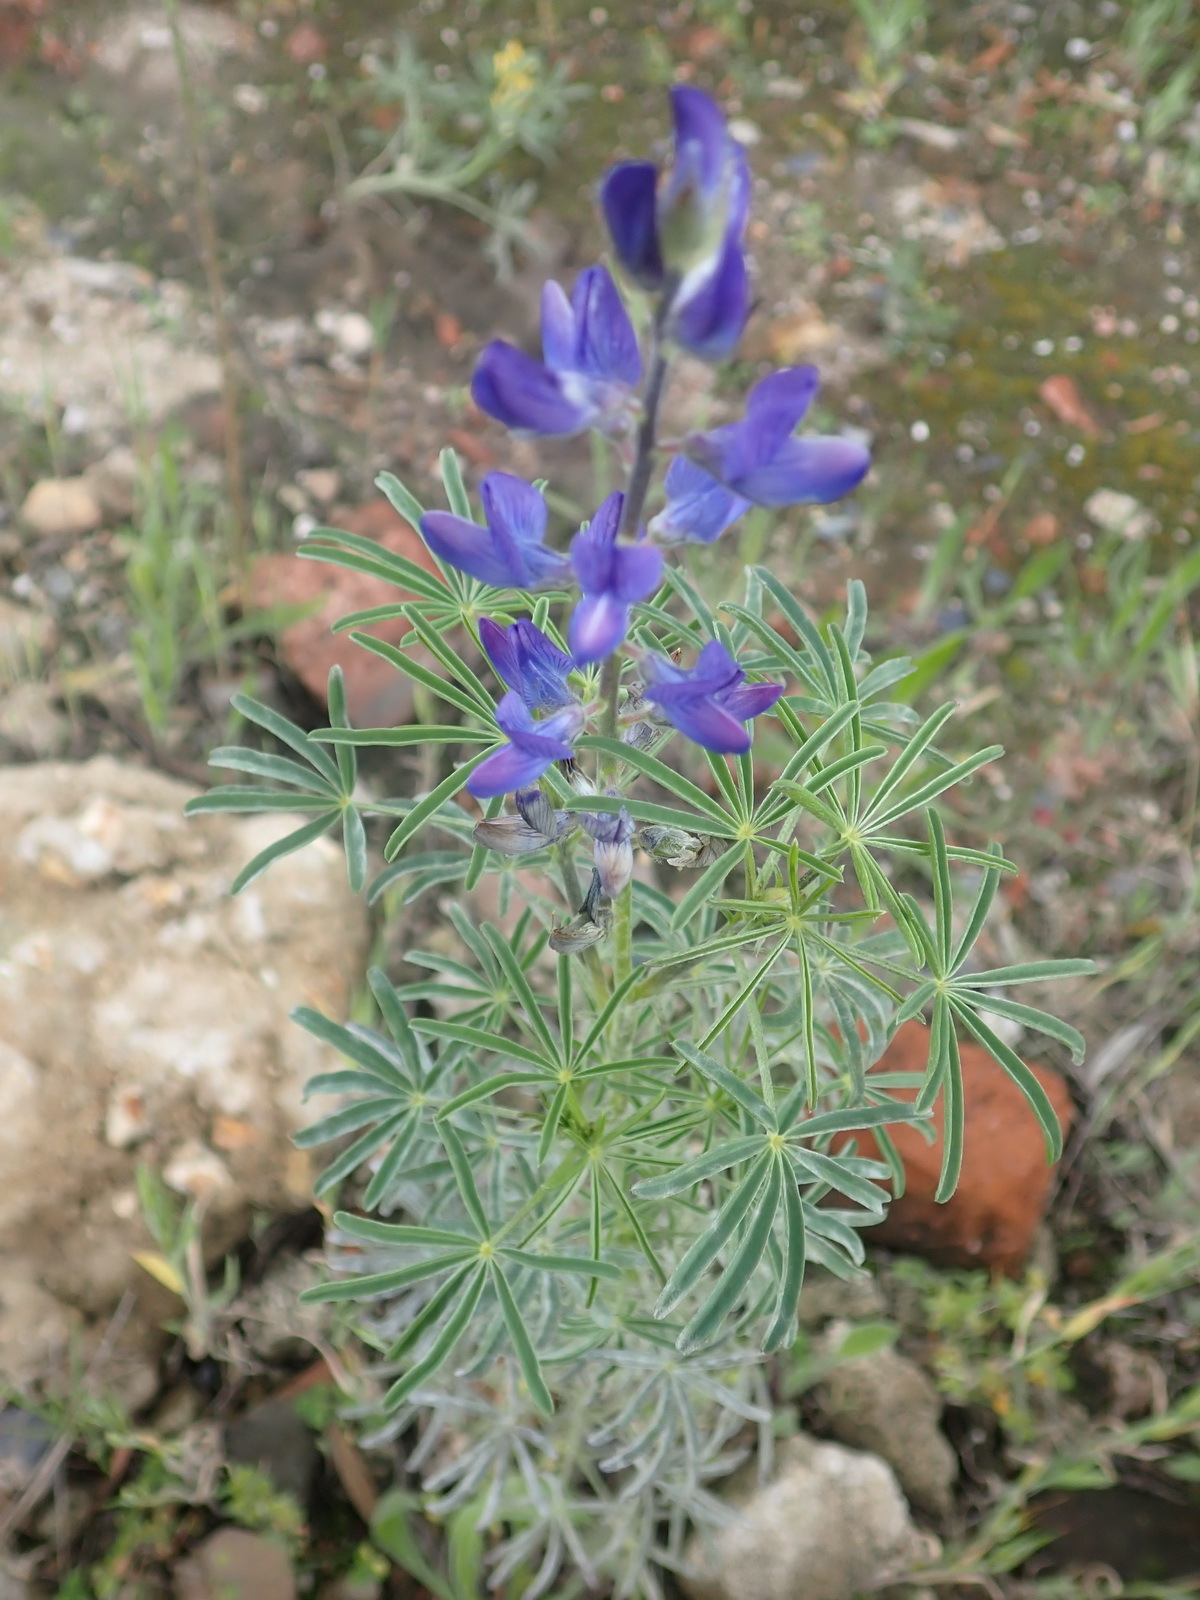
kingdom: Plantae
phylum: Tracheophyta
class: Magnoliopsida
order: Fabales
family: Fabaceae
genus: Lupinus
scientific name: Lupinus angustifolius
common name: Narrow-leaved lupin
